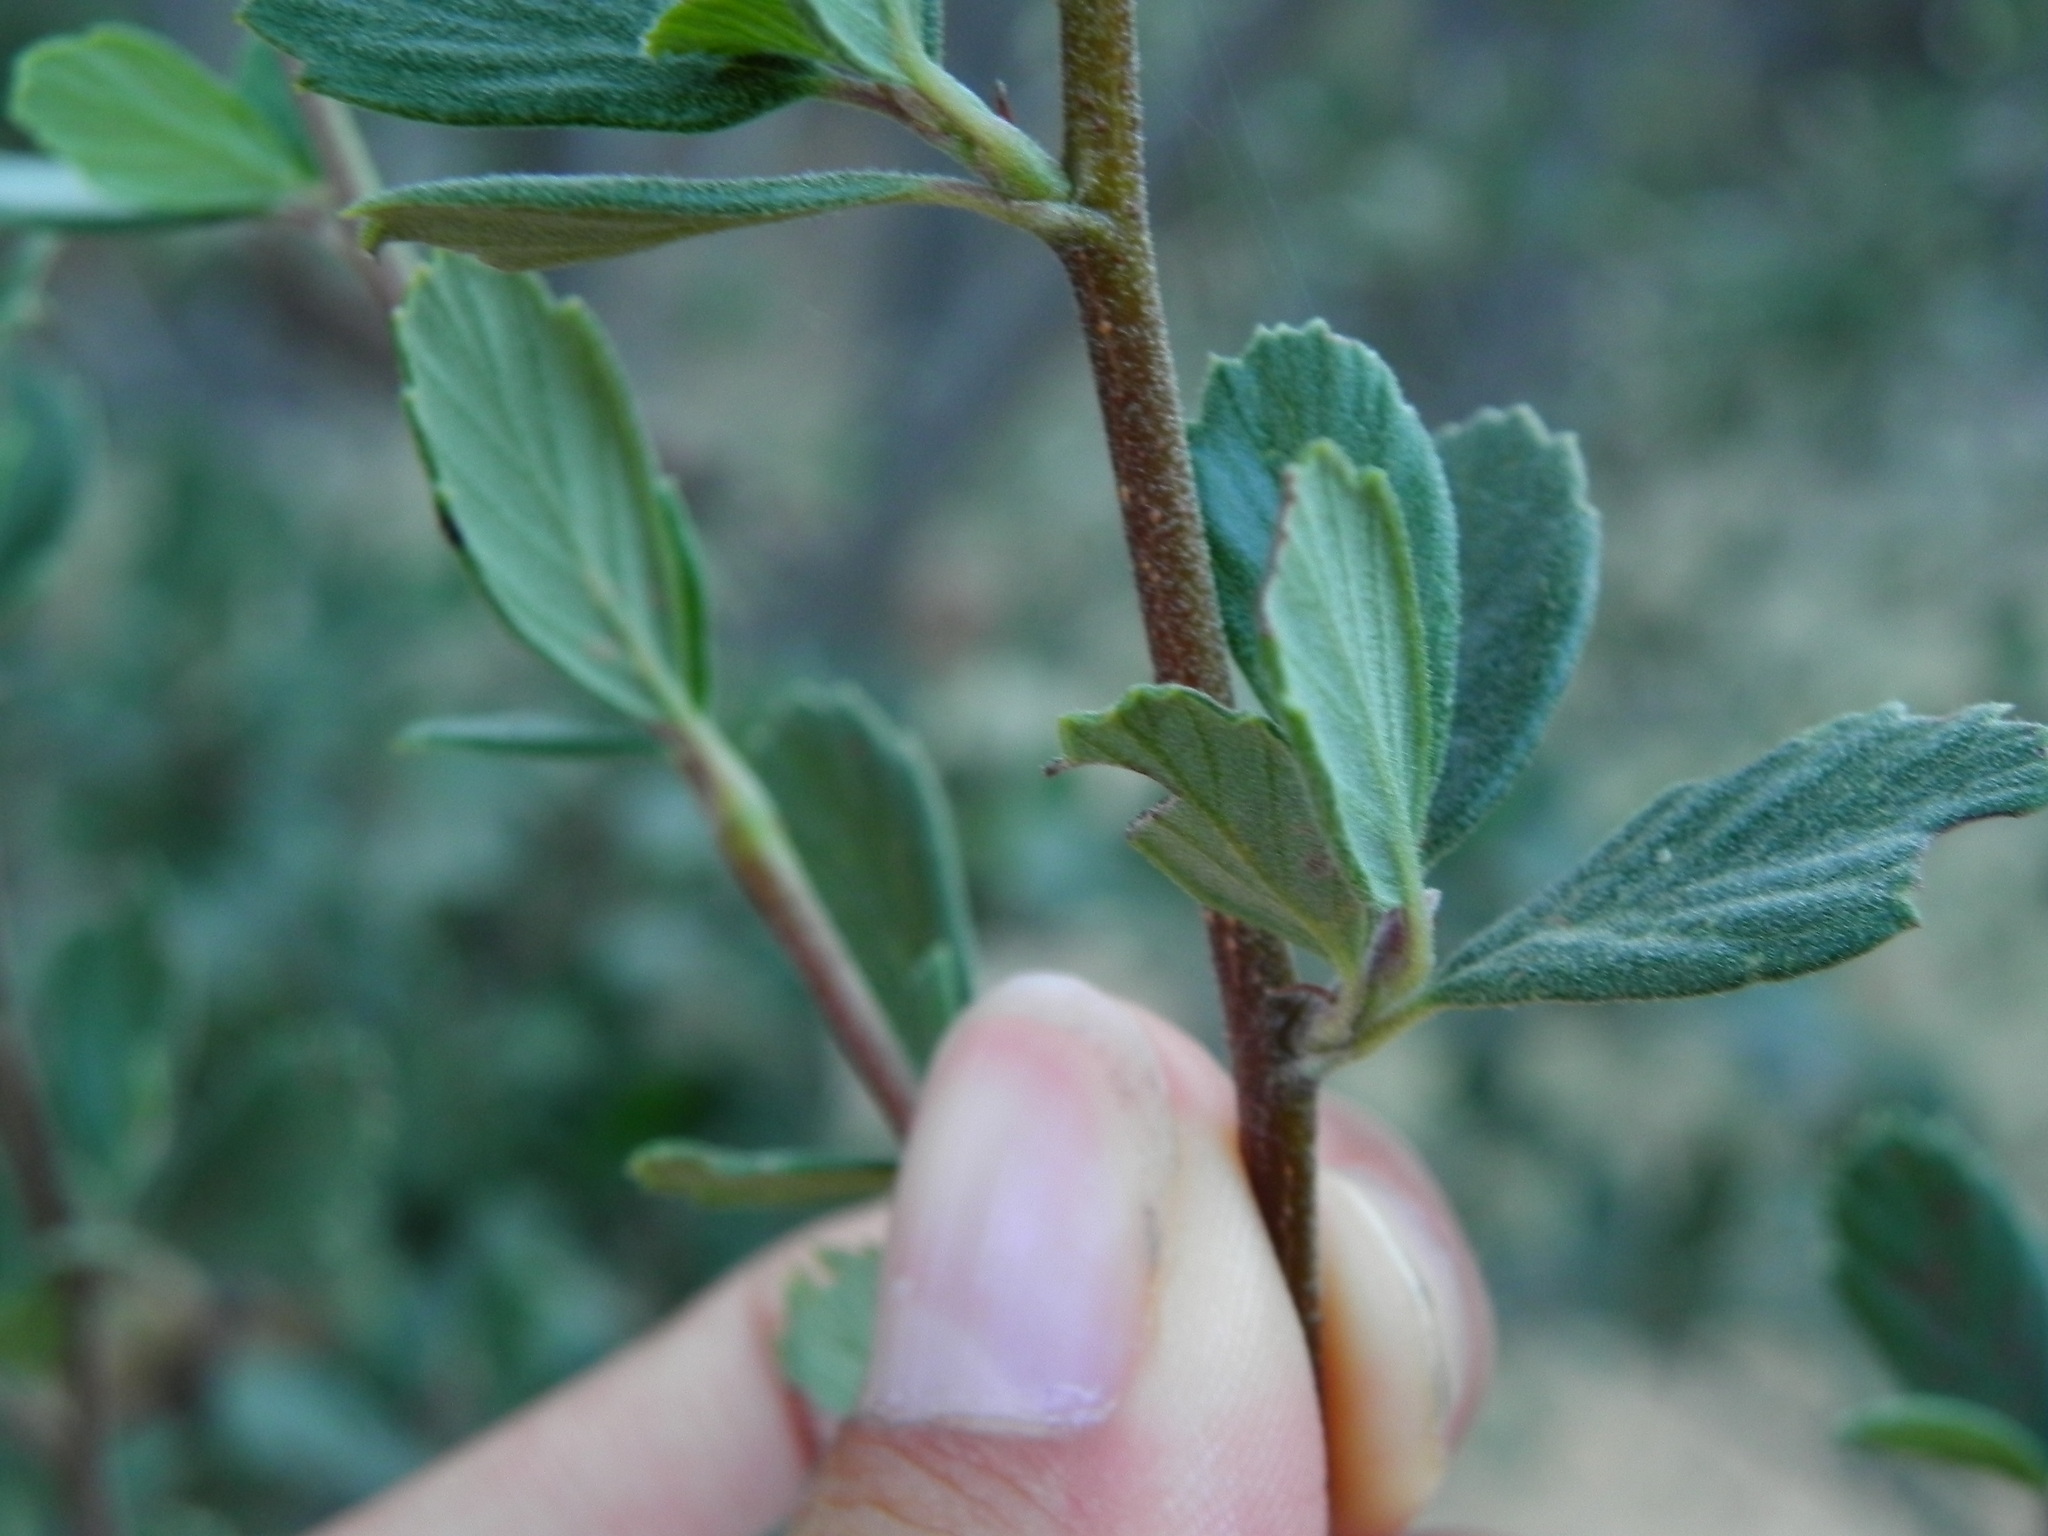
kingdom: Plantae
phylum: Tracheophyta
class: Magnoliopsida
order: Rosales
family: Rosaceae
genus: Cercocarpus
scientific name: Cercocarpus betuloides
